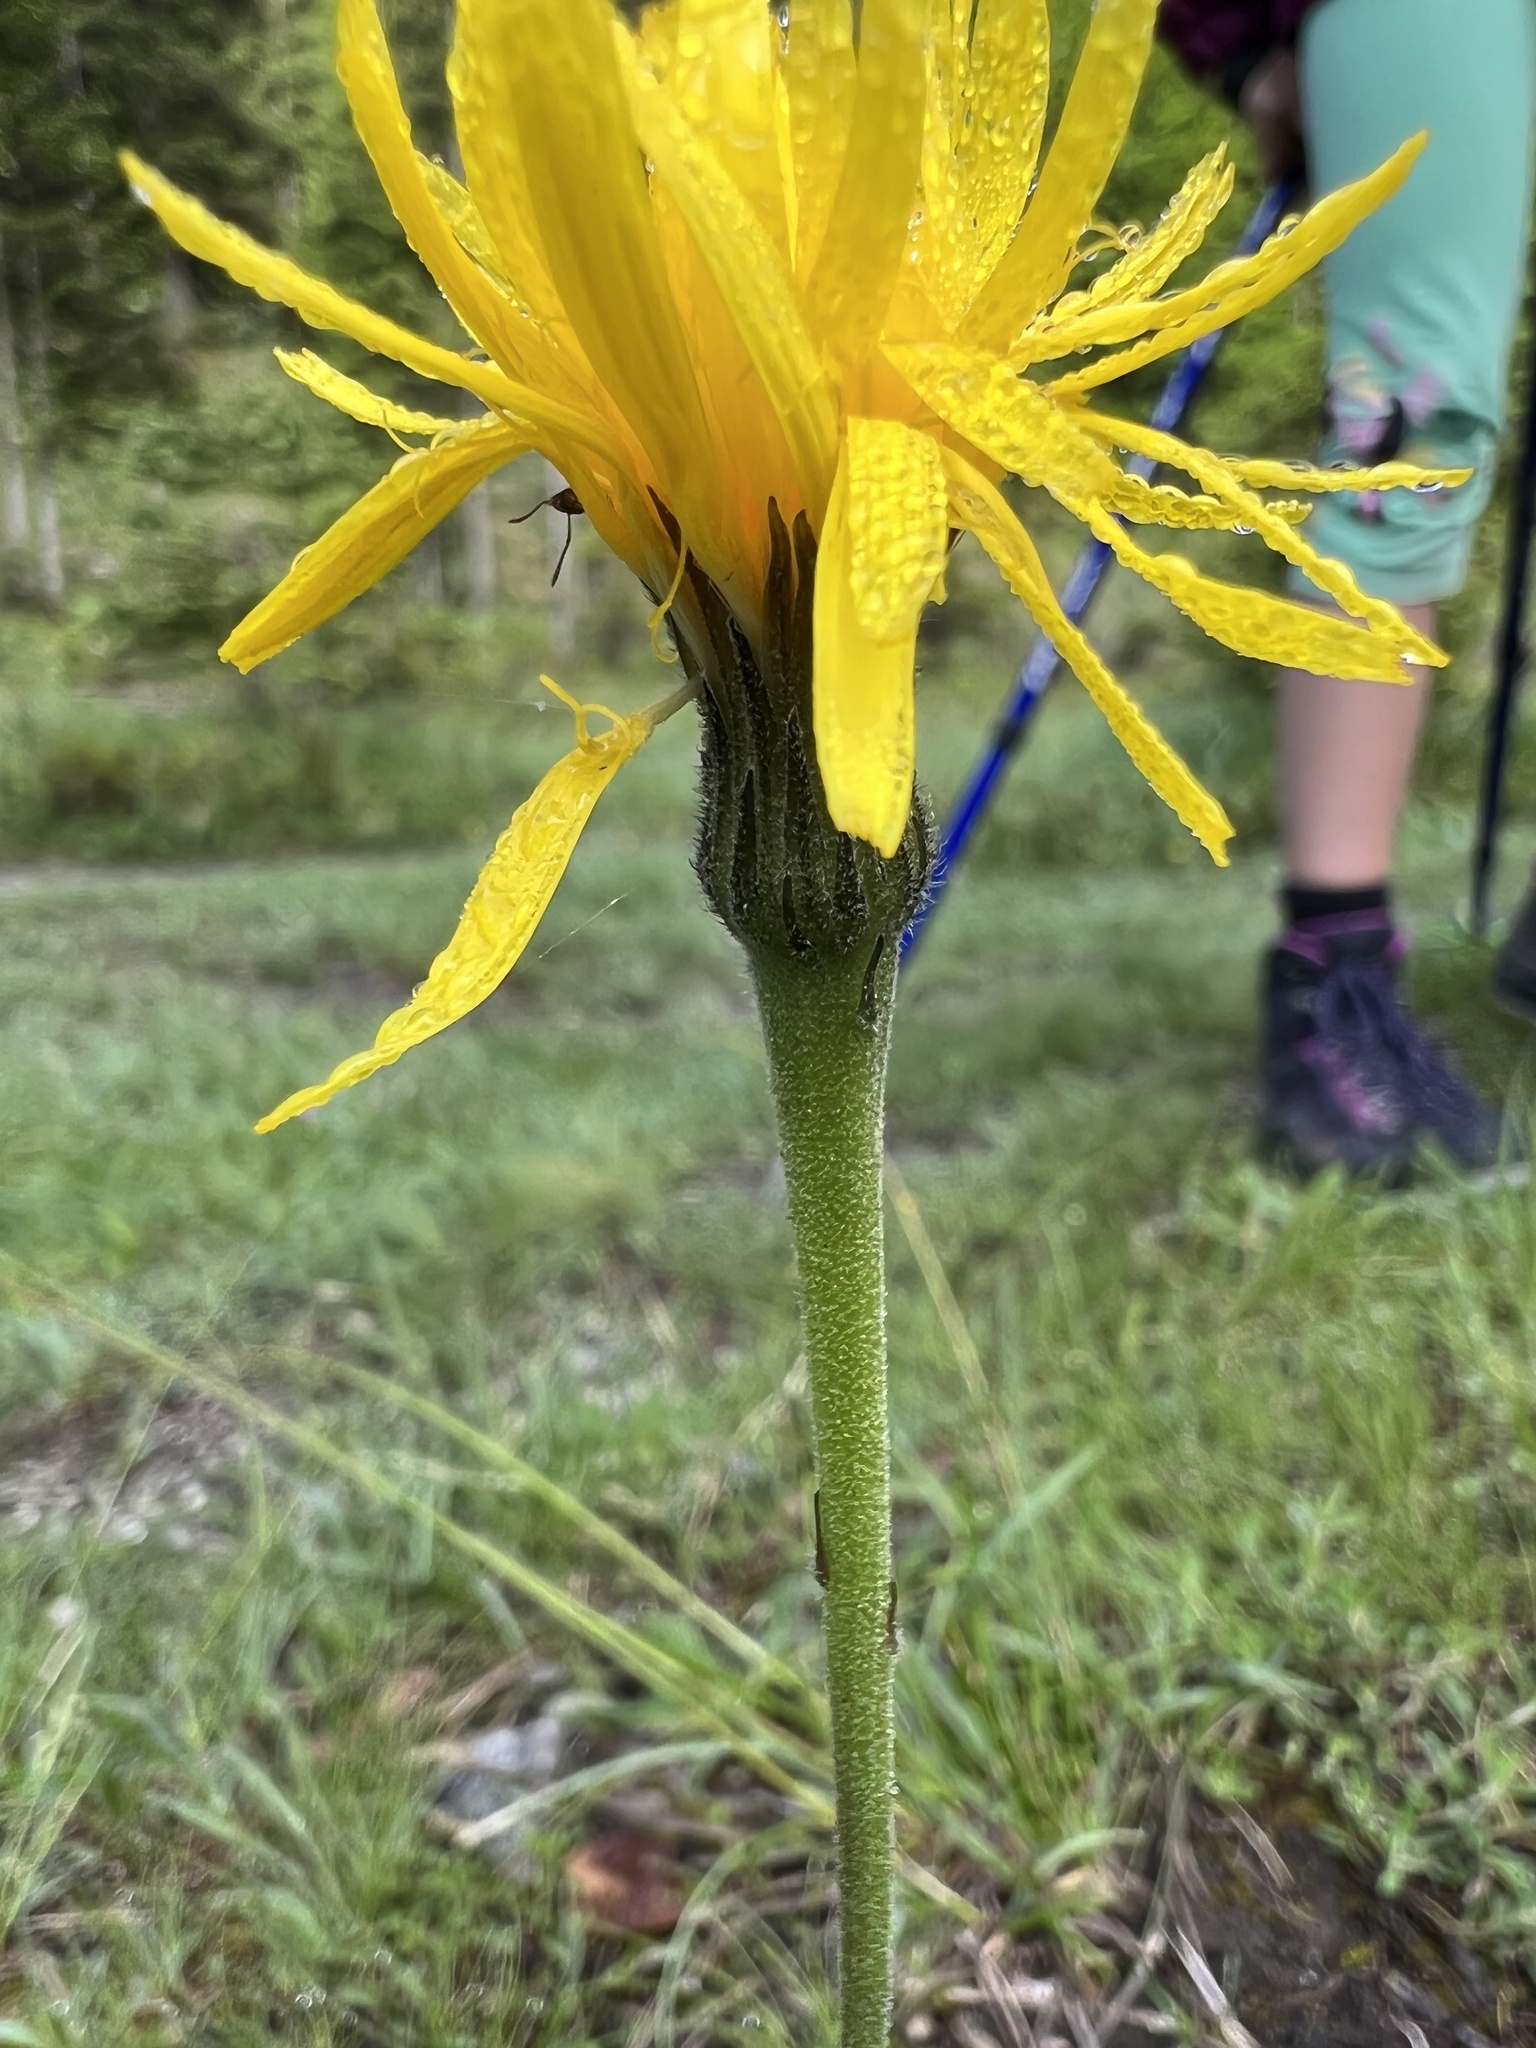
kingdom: Plantae
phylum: Tracheophyta
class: Magnoliopsida
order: Asterales
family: Asteraceae
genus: Leontodon
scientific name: Leontodon incanus
